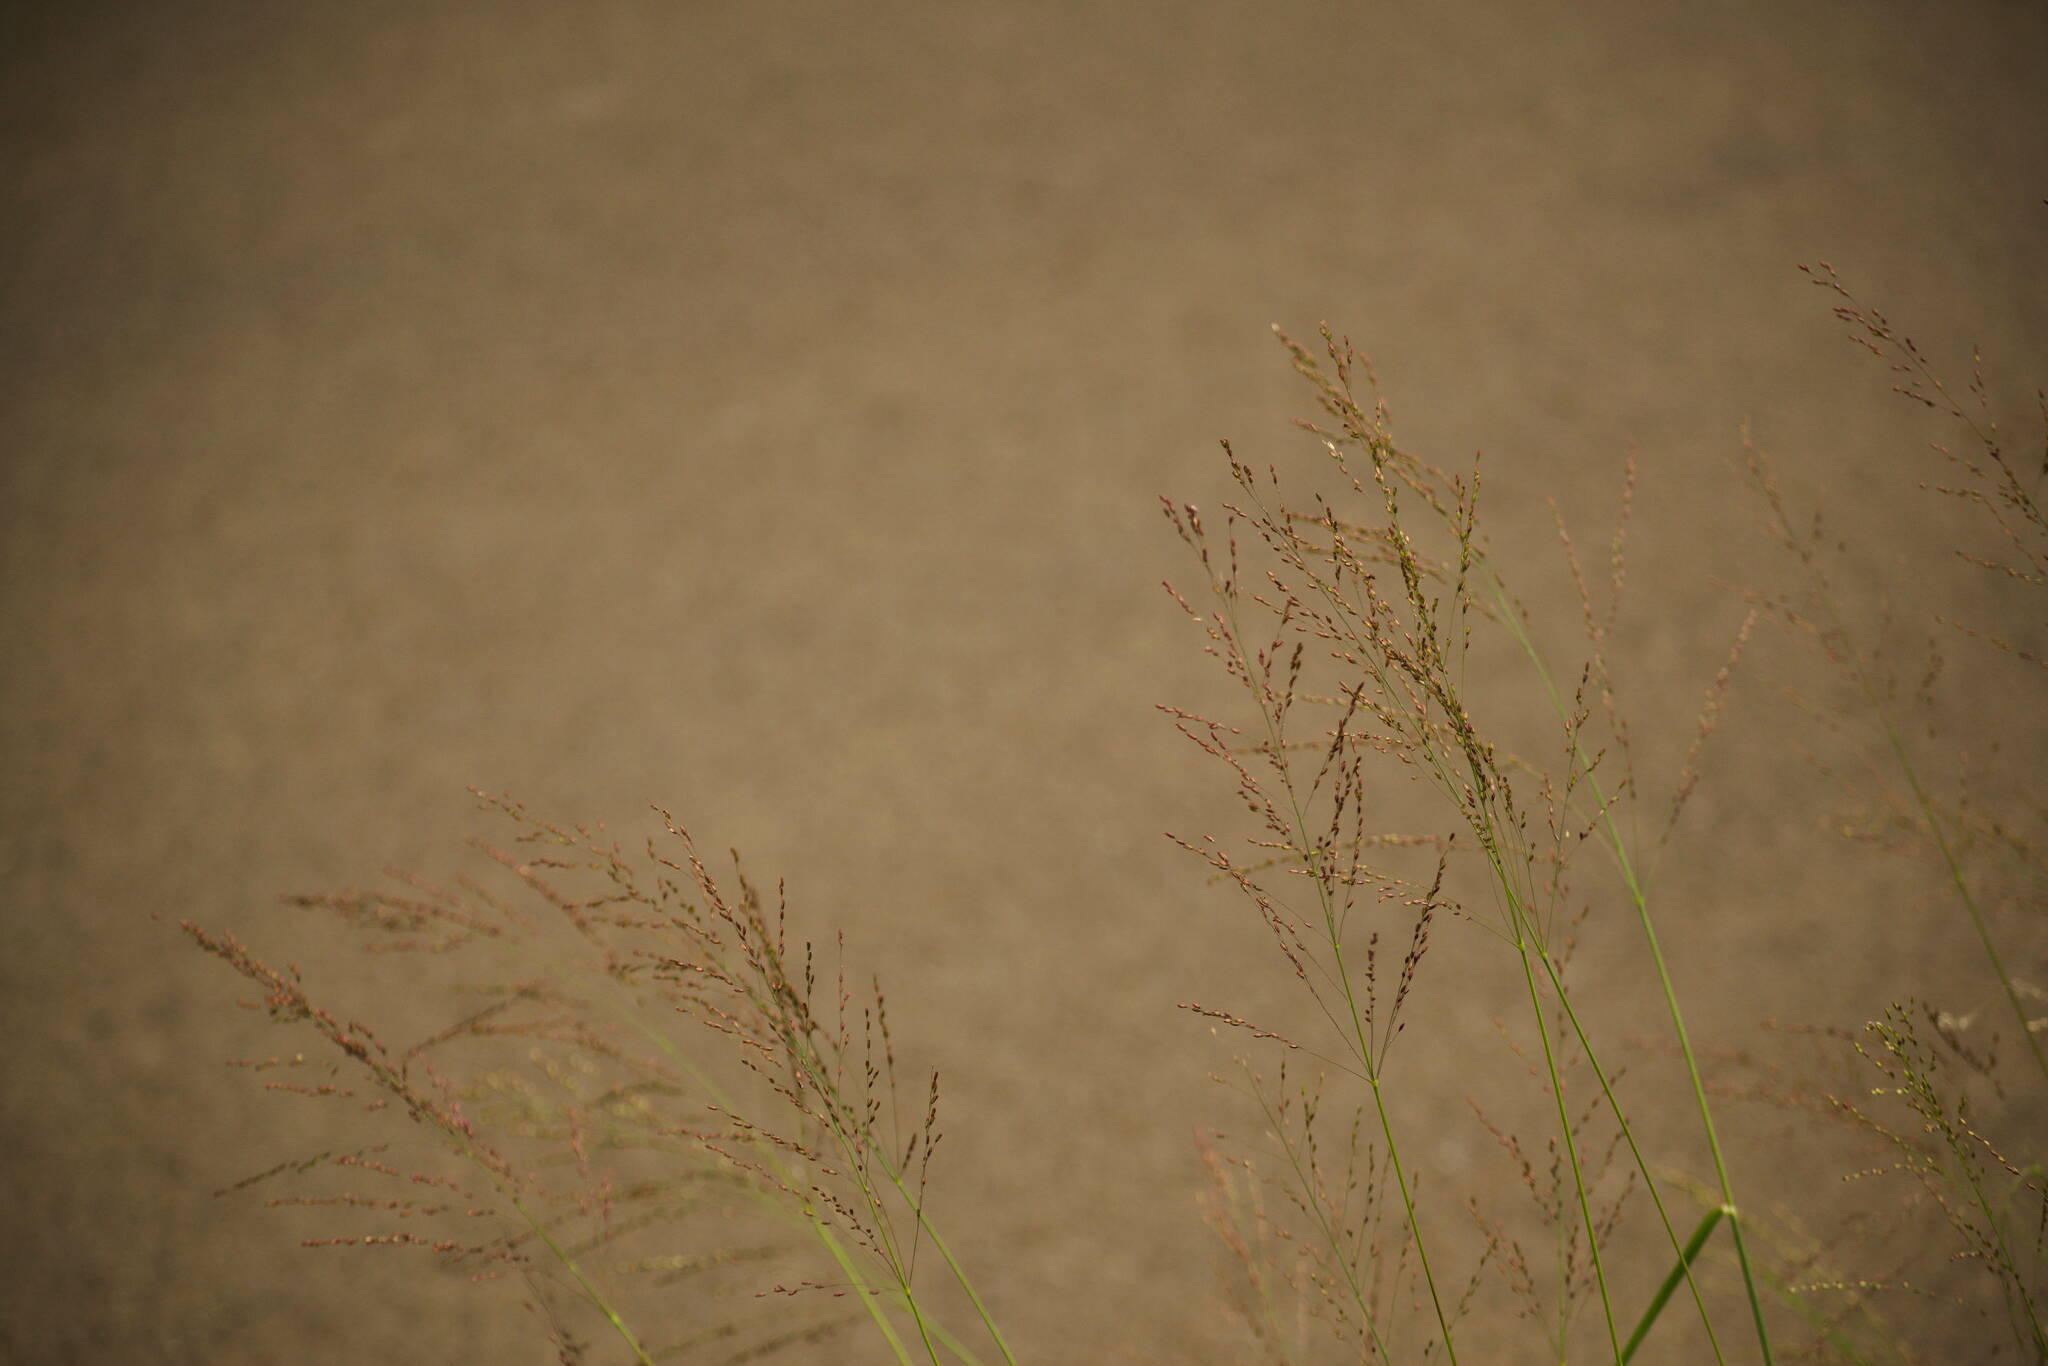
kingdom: Plantae
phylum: Tracheophyta
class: Liliopsida
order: Poales
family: Poaceae
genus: Megathyrsus
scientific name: Megathyrsus maximus
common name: Guineagrass
